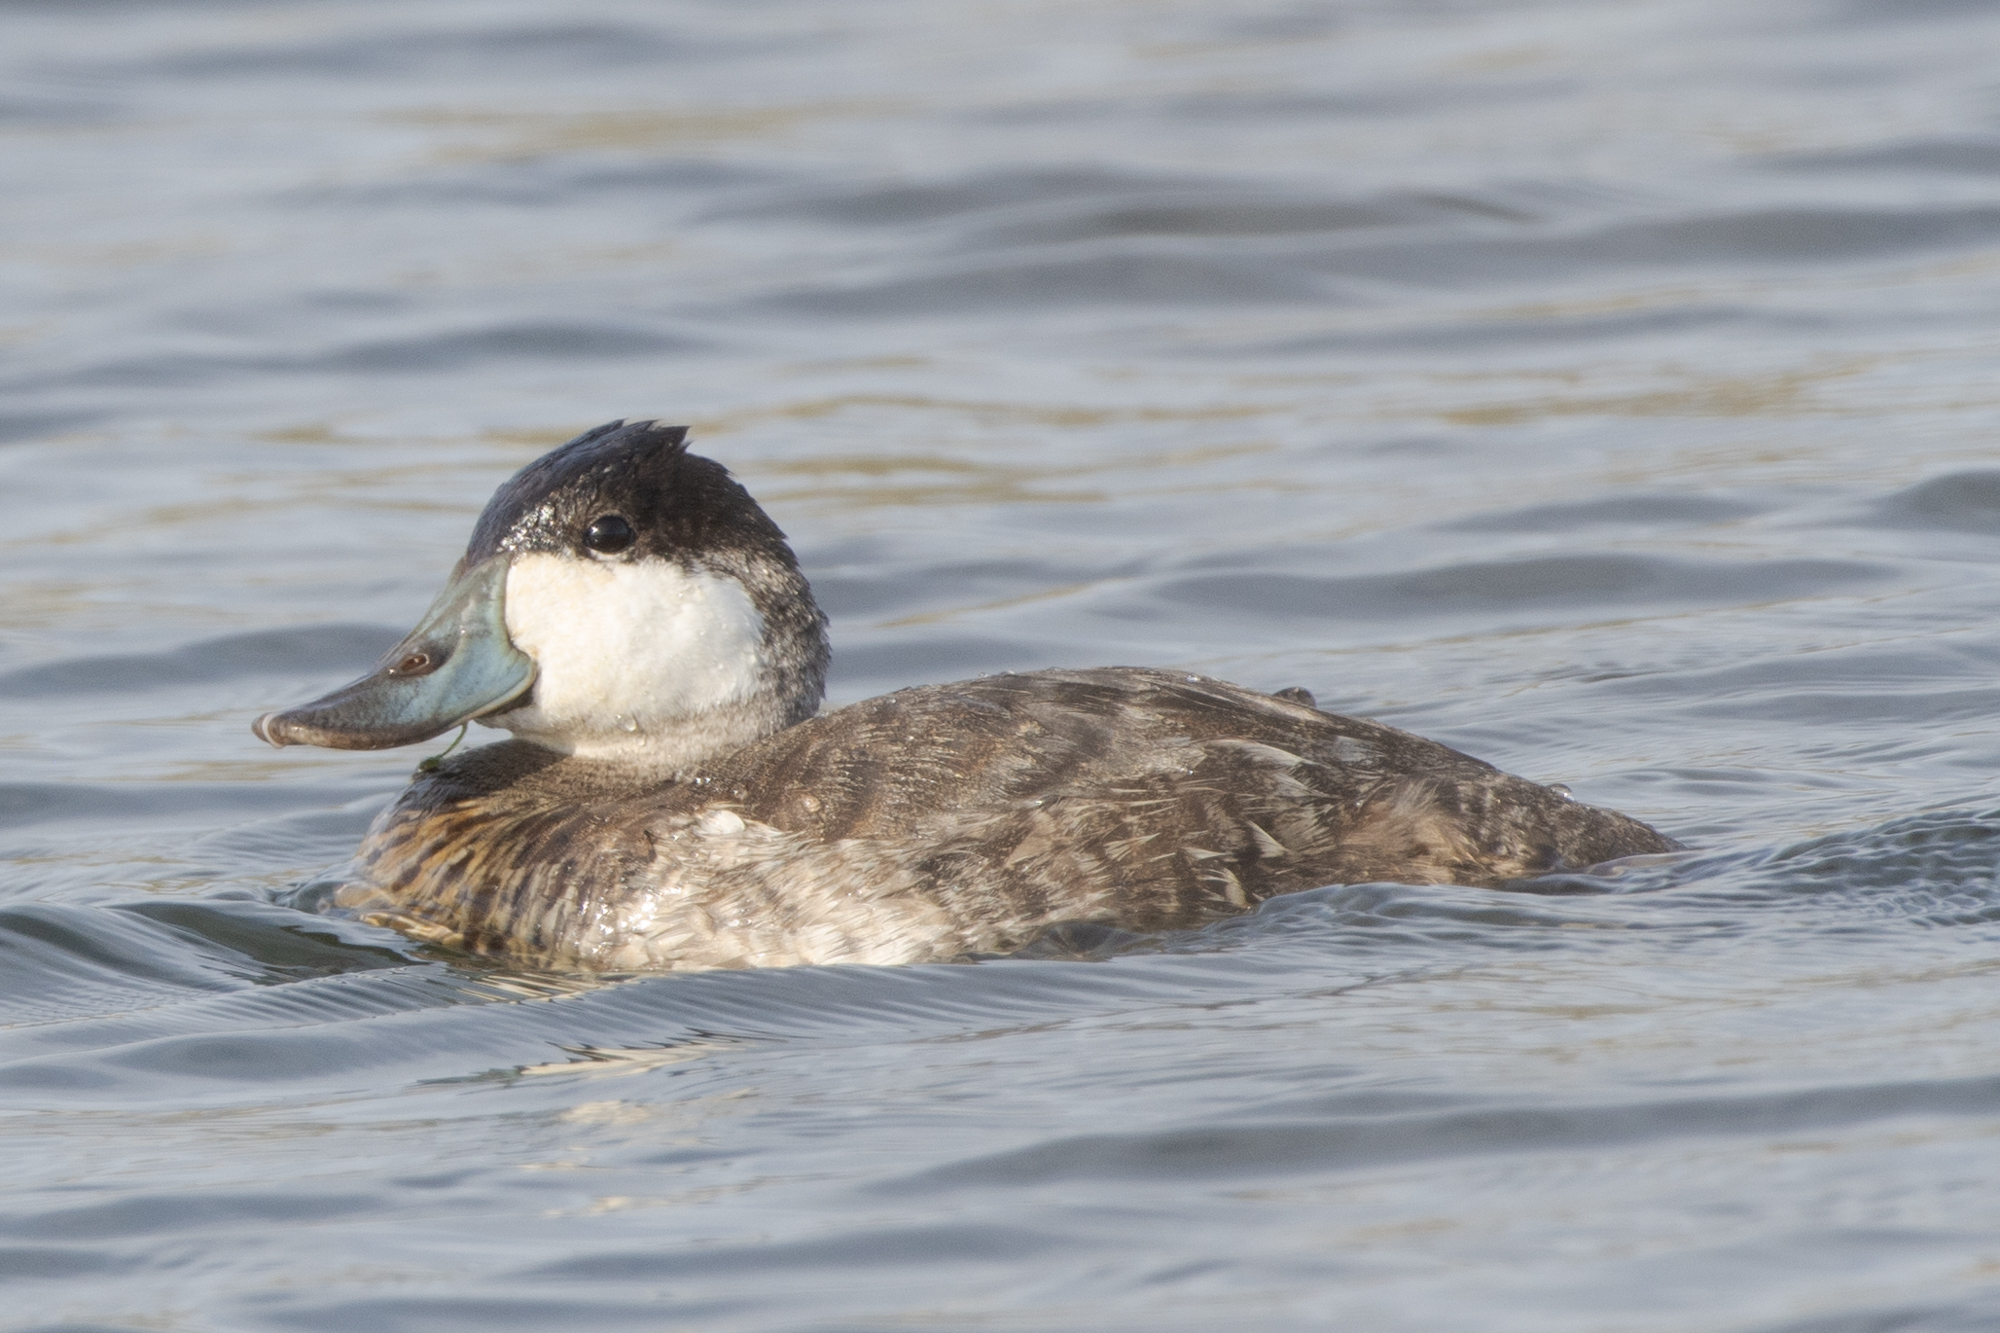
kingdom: Animalia
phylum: Chordata
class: Aves
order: Anseriformes
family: Anatidae
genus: Oxyura
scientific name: Oxyura jamaicensis
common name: Ruddy duck
